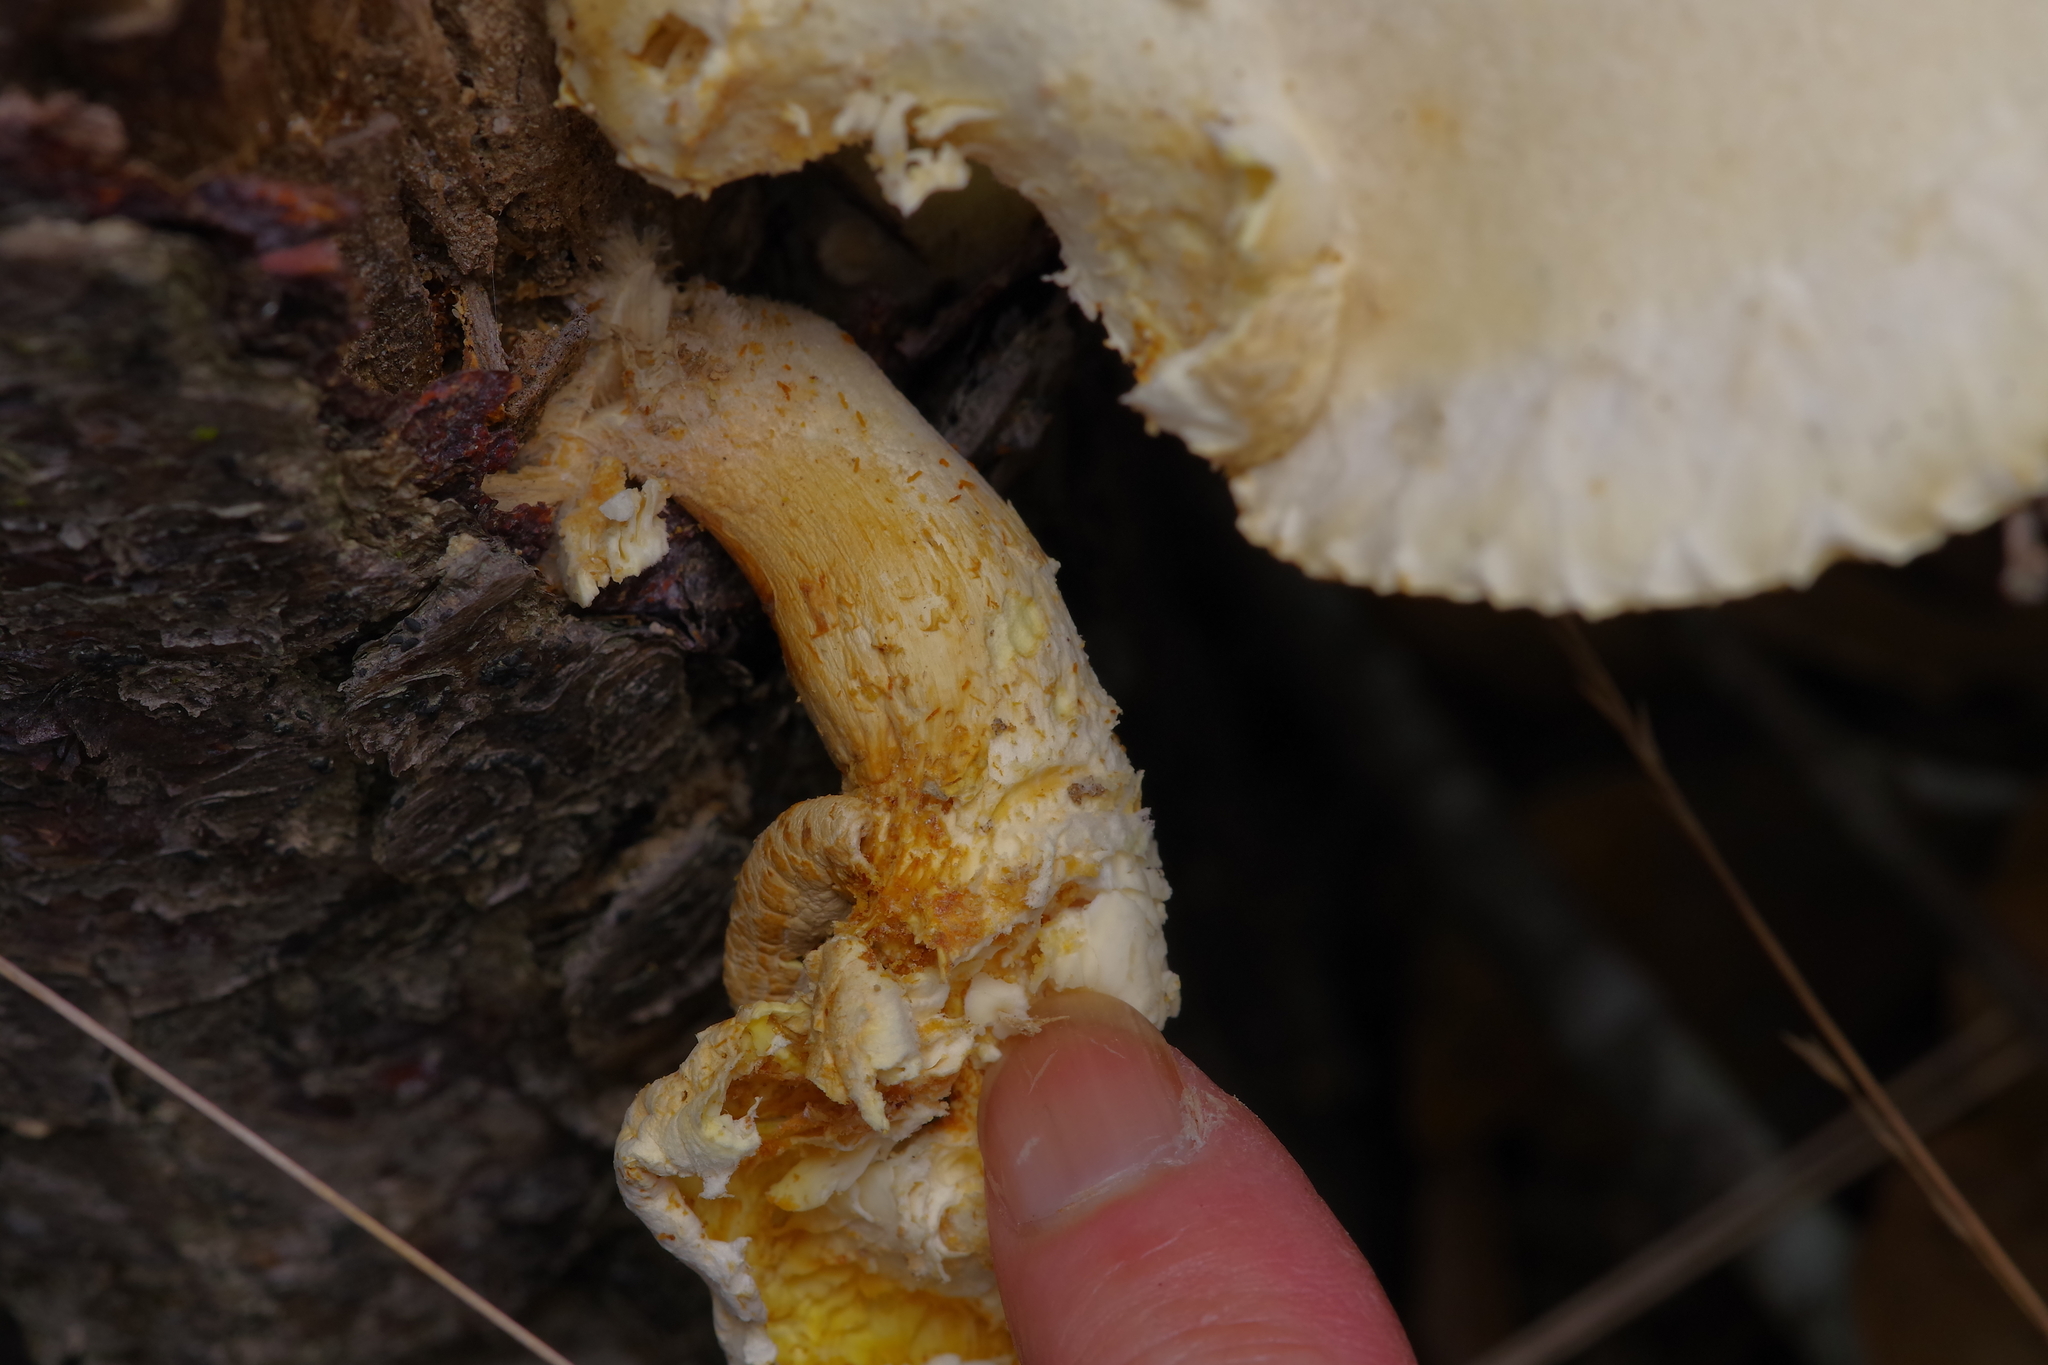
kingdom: Fungi
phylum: Basidiomycota
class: Agaricomycetes
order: Polyporales
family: Polyporaceae
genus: Lentinus
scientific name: Lentinus levis
